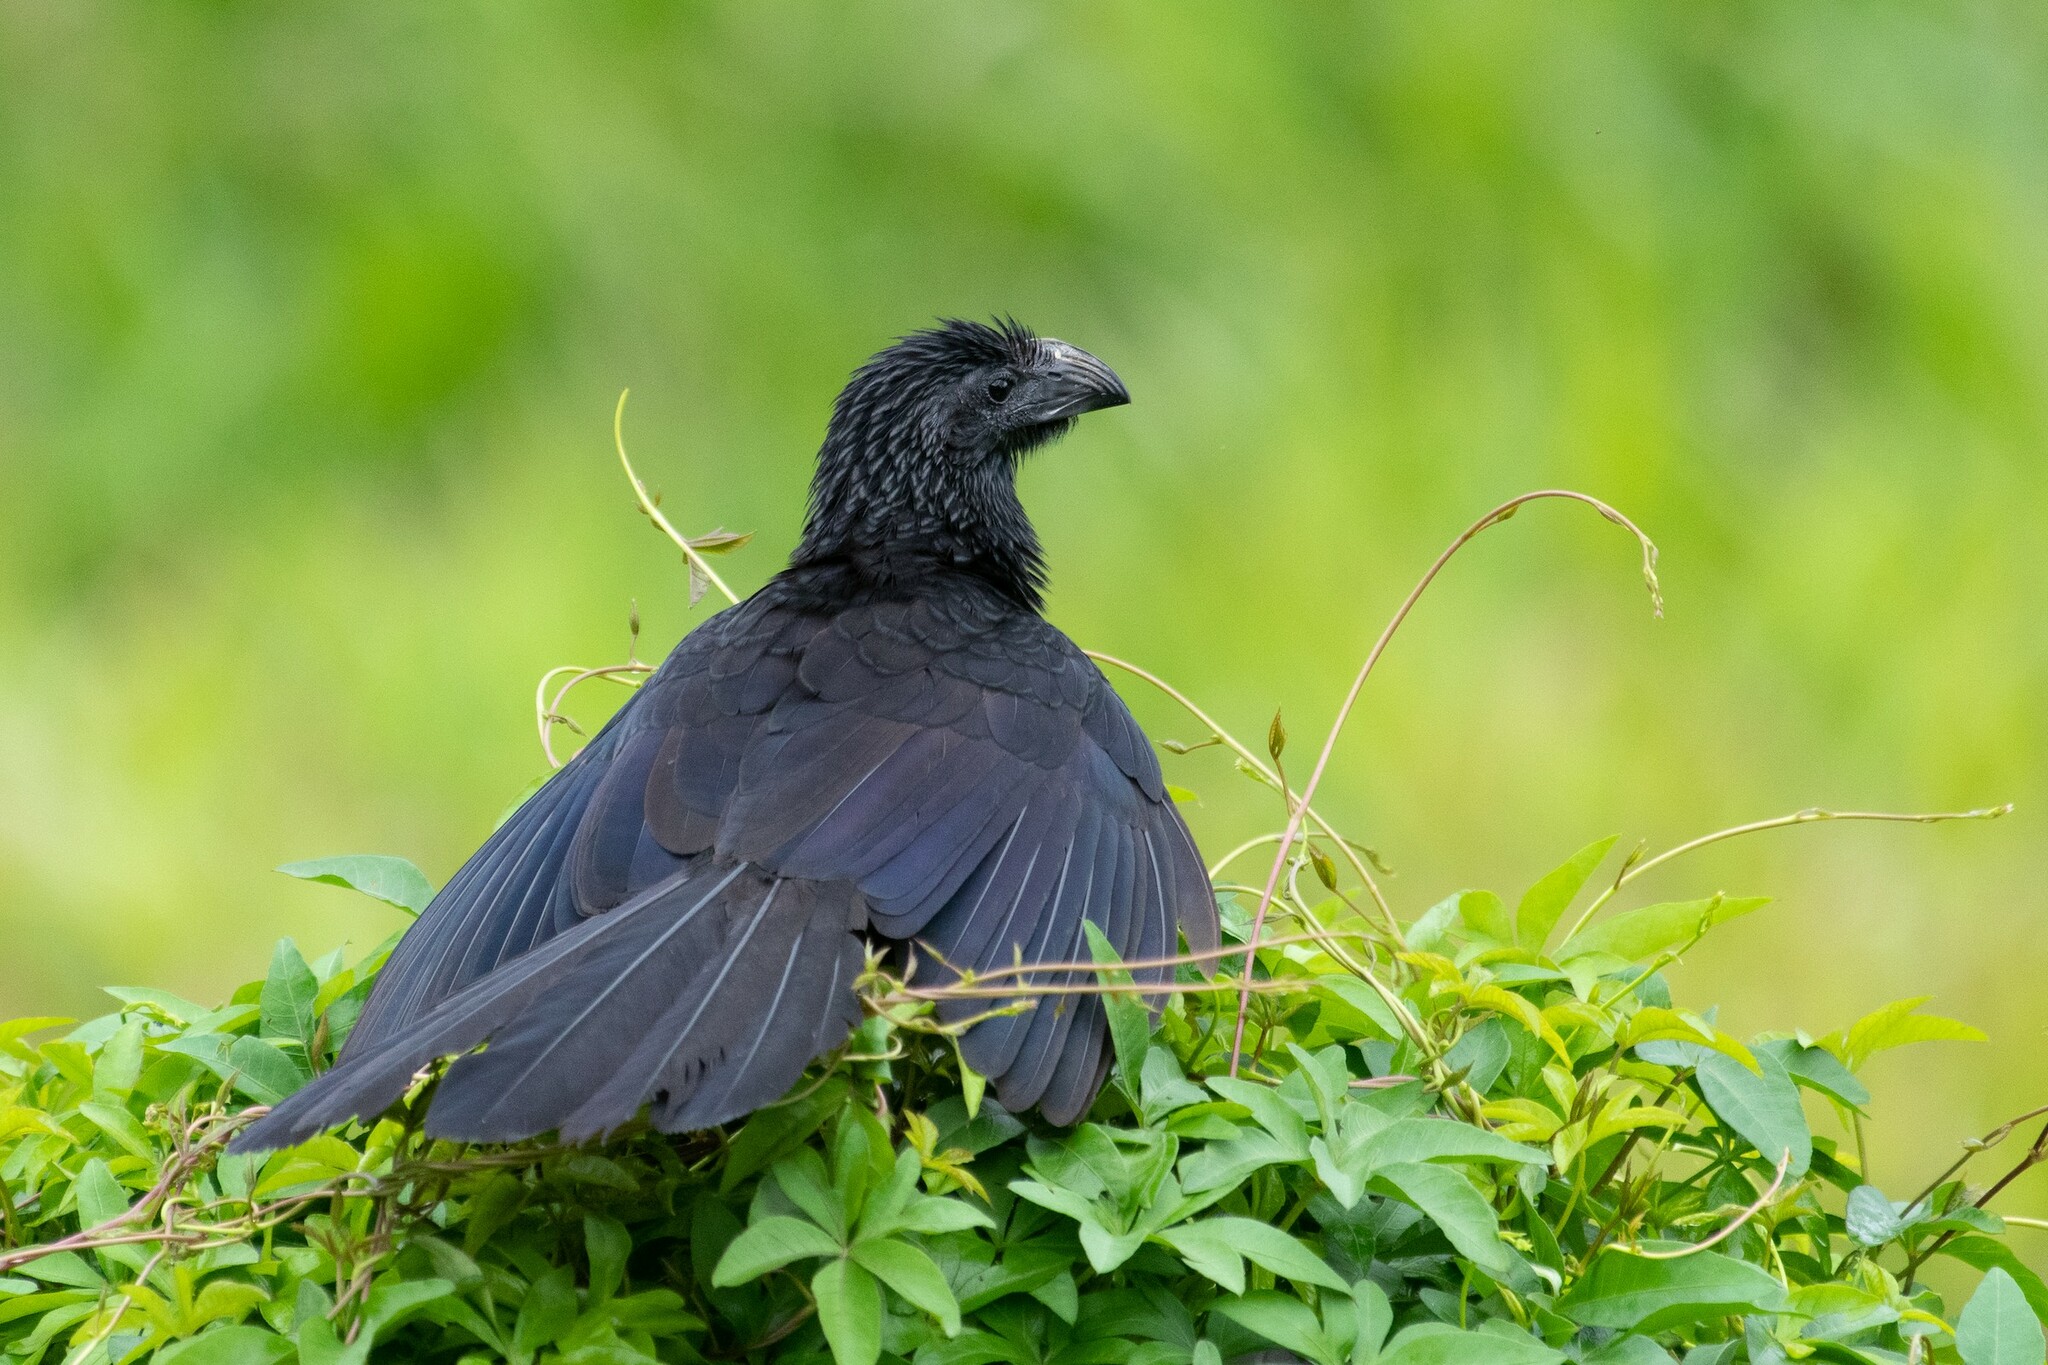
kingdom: Animalia
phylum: Chordata
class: Aves
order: Cuculiformes
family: Cuculidae
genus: Crotophaga
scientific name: Crotophaga sulcirostris
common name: Groove-billed ani
